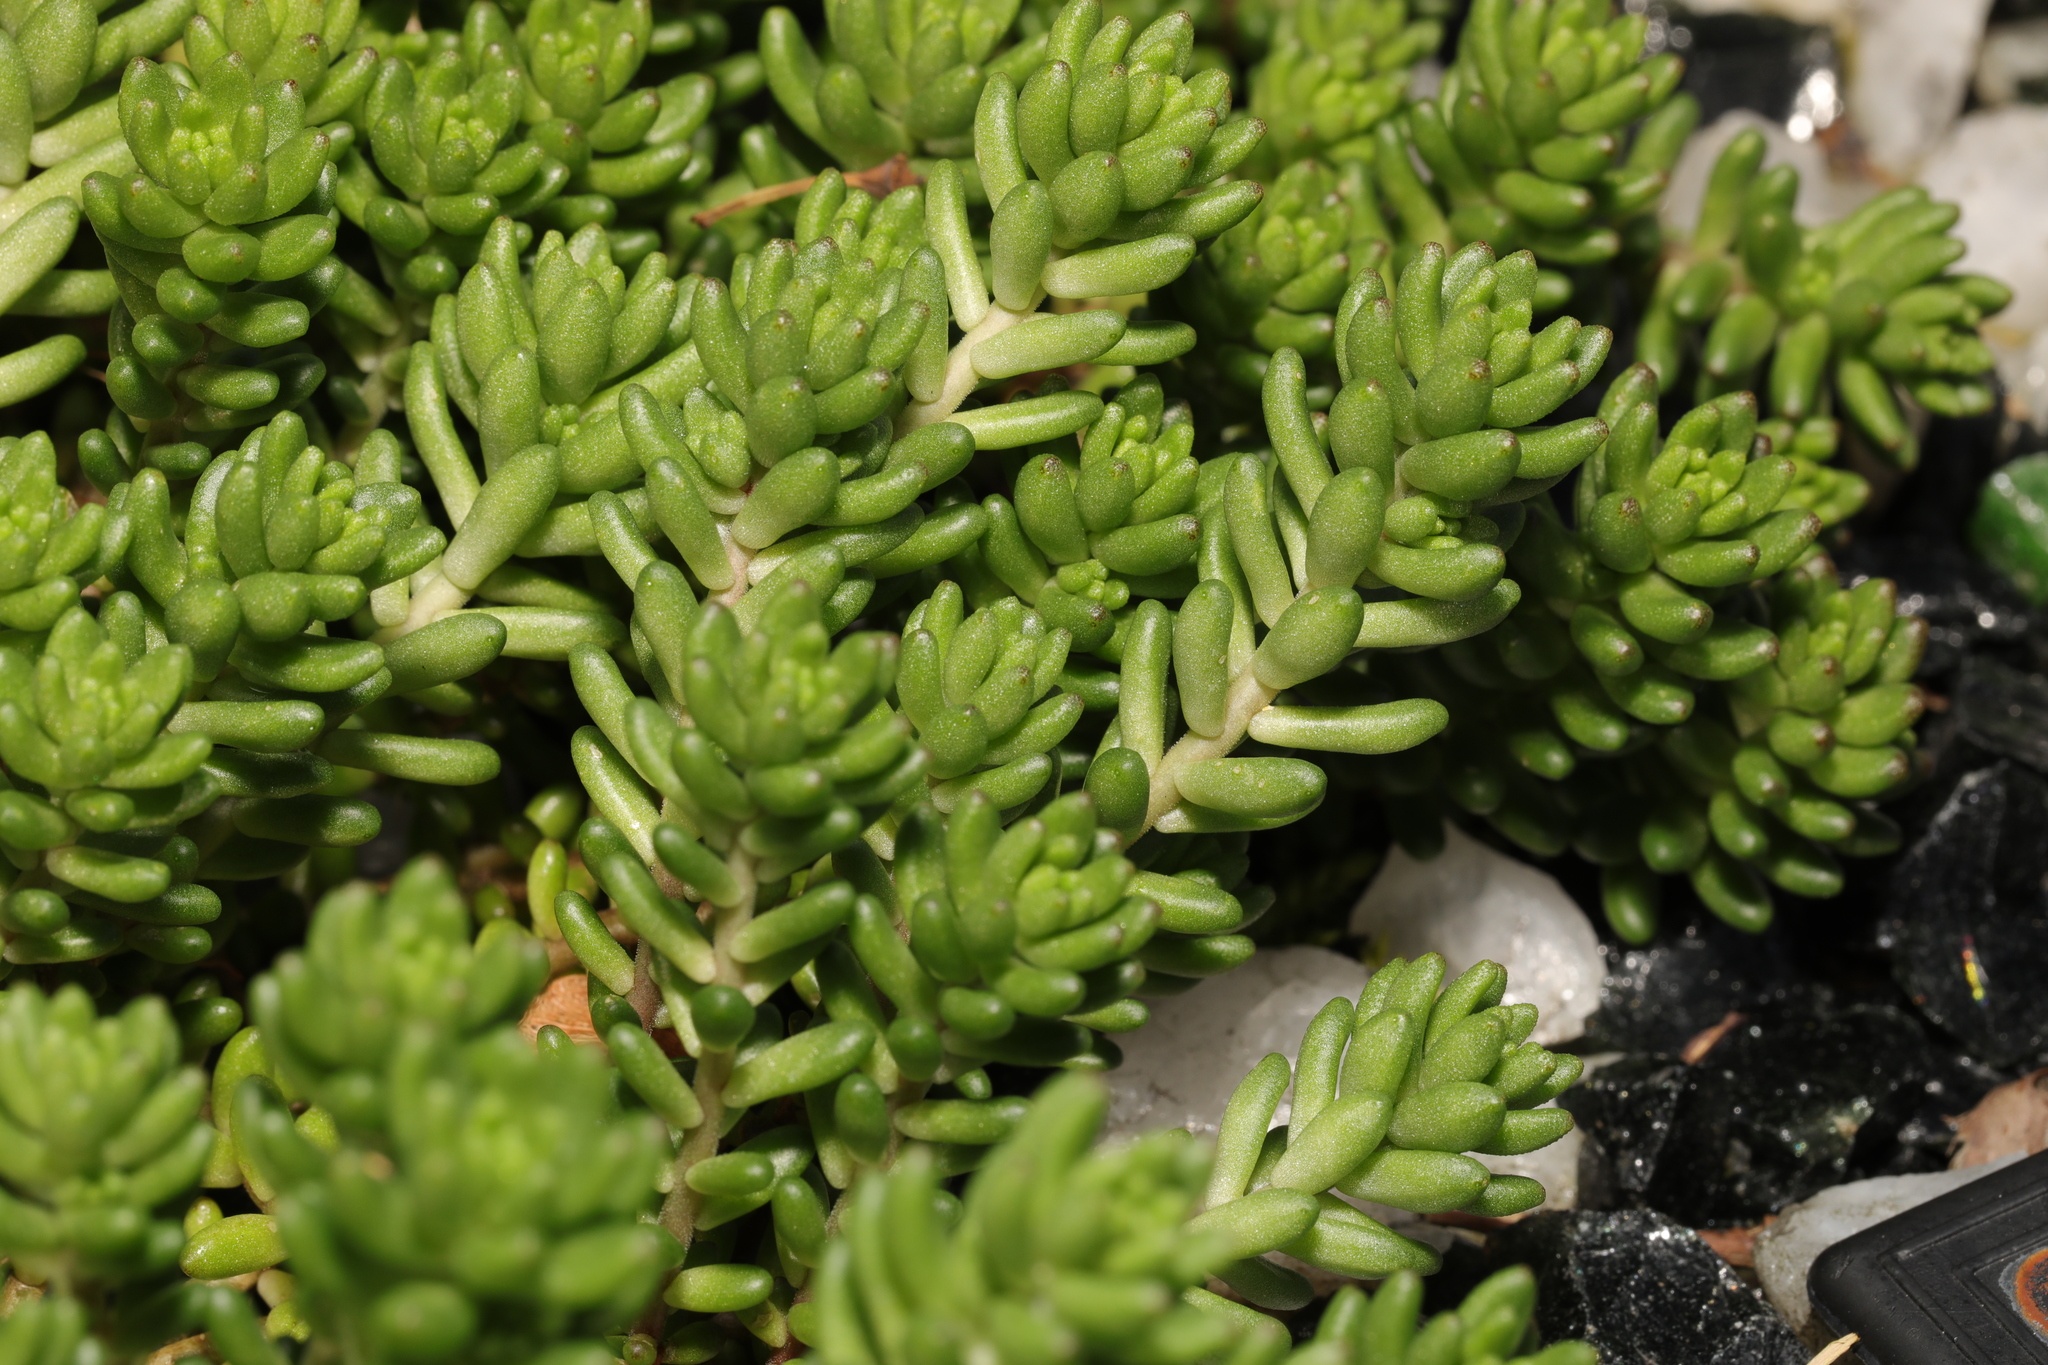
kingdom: Plantae
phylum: Tracheophyta
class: Magnoliopsida
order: Saxifragales
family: Crassulaceae
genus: Sedum
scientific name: Sedum album
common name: White stonecrop
